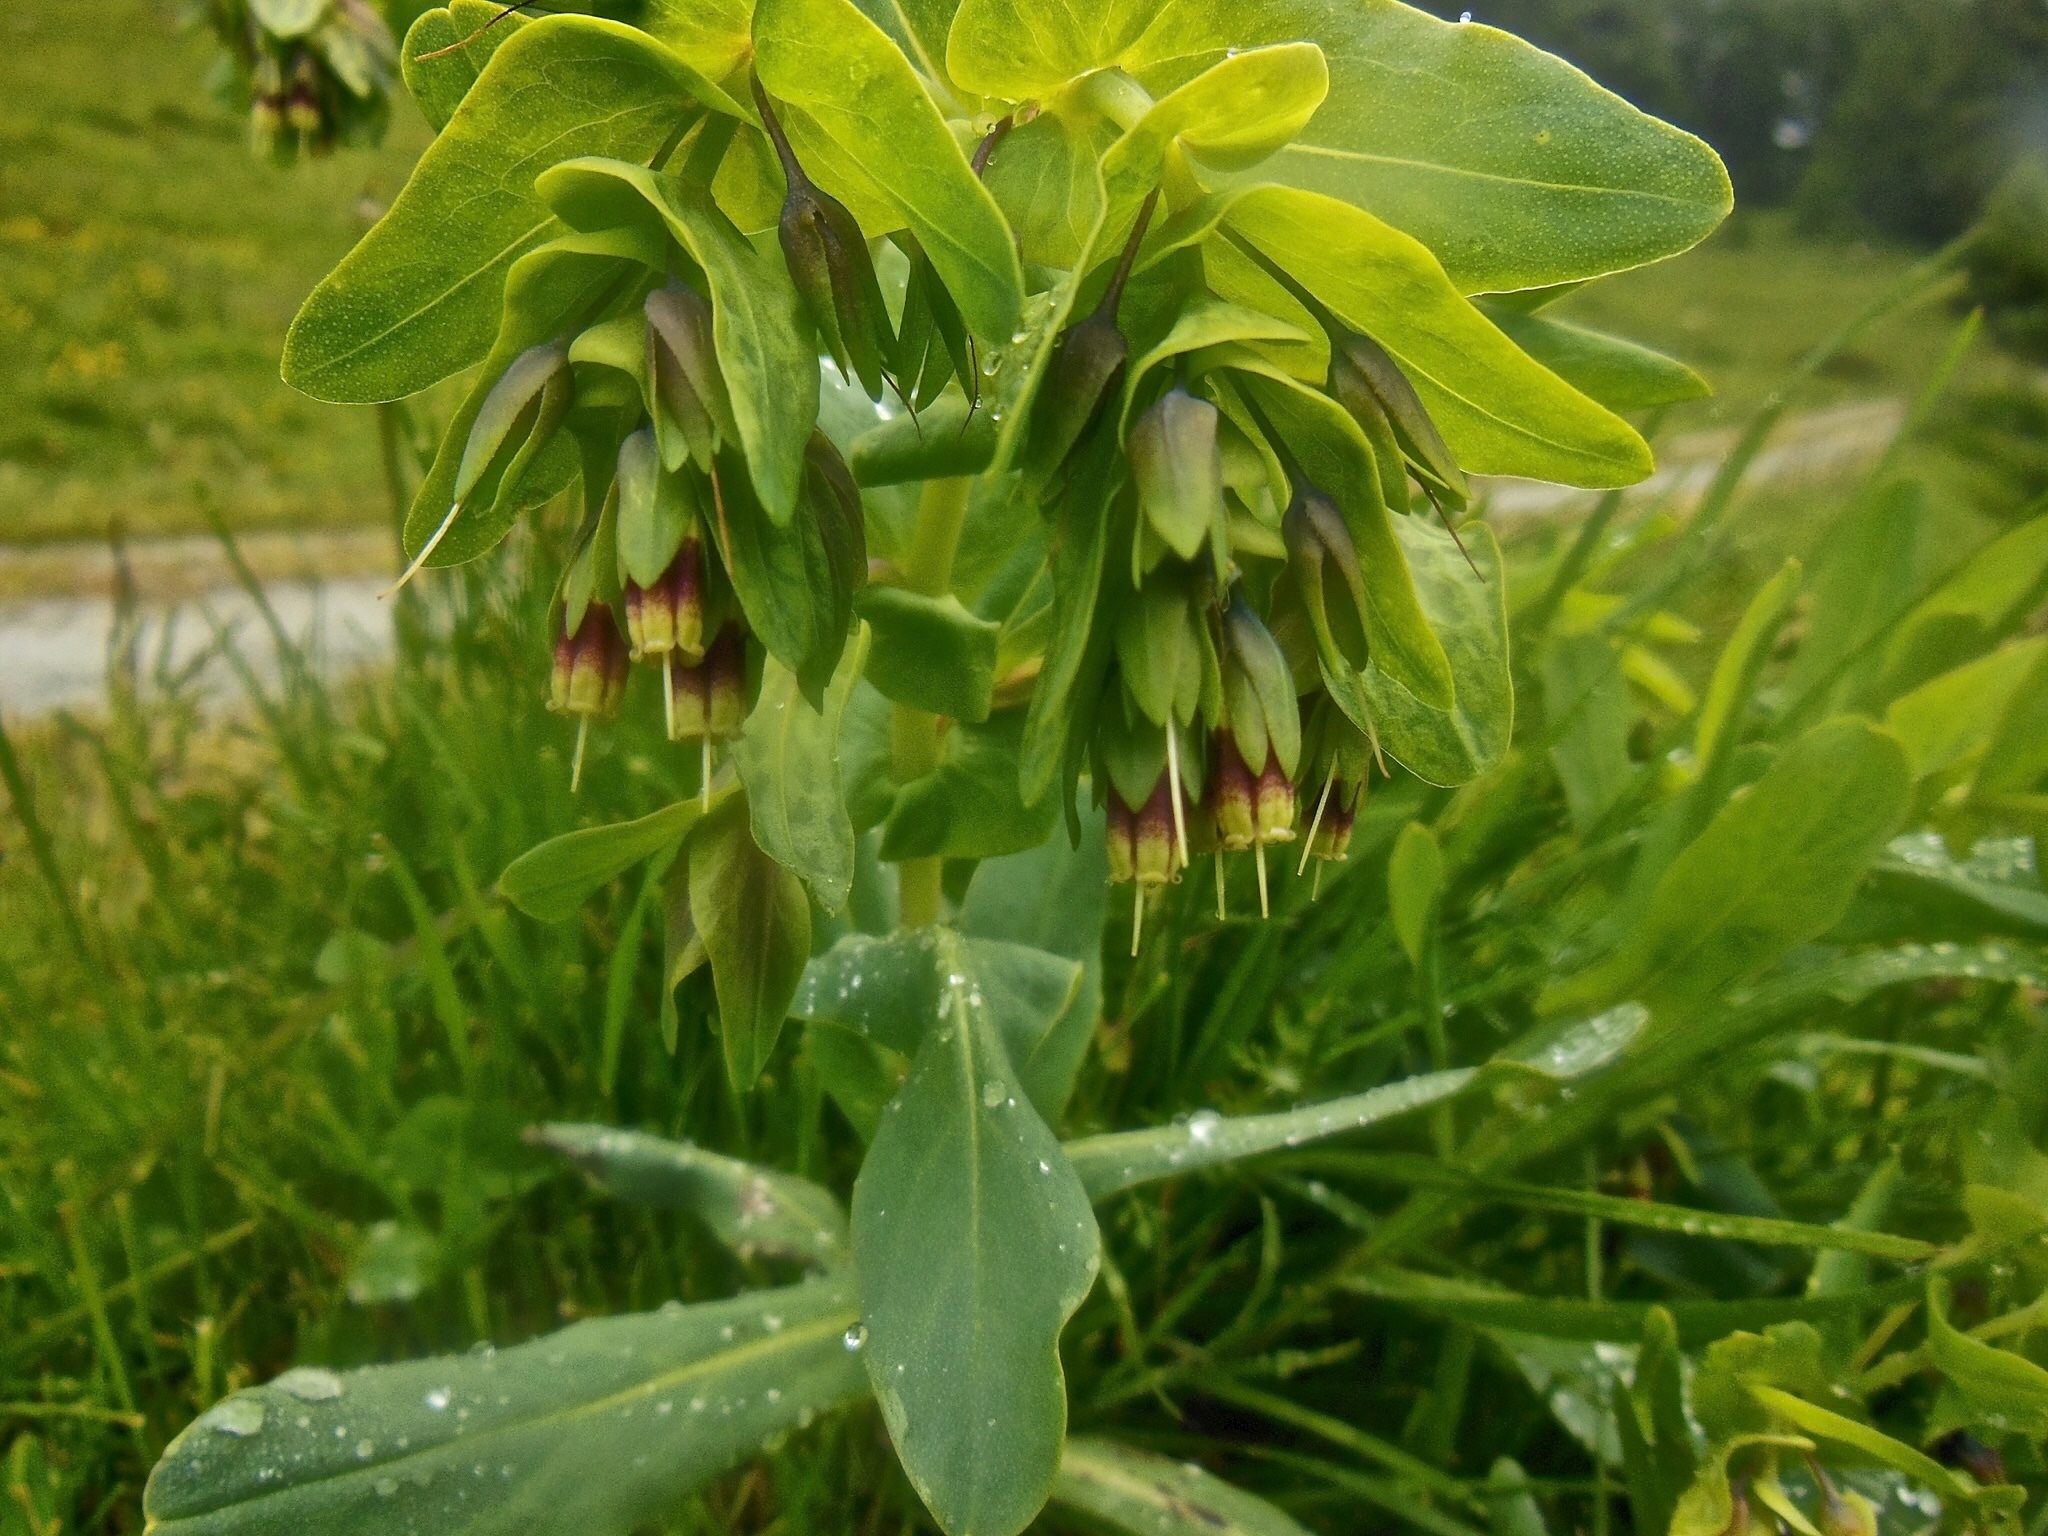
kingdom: Plantae
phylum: Tracheophyta
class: Magnoliopsida
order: Boraginales
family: Boraginaceae
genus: Cerinthe
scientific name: Cerinthe glabra
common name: Smooth honeywort
